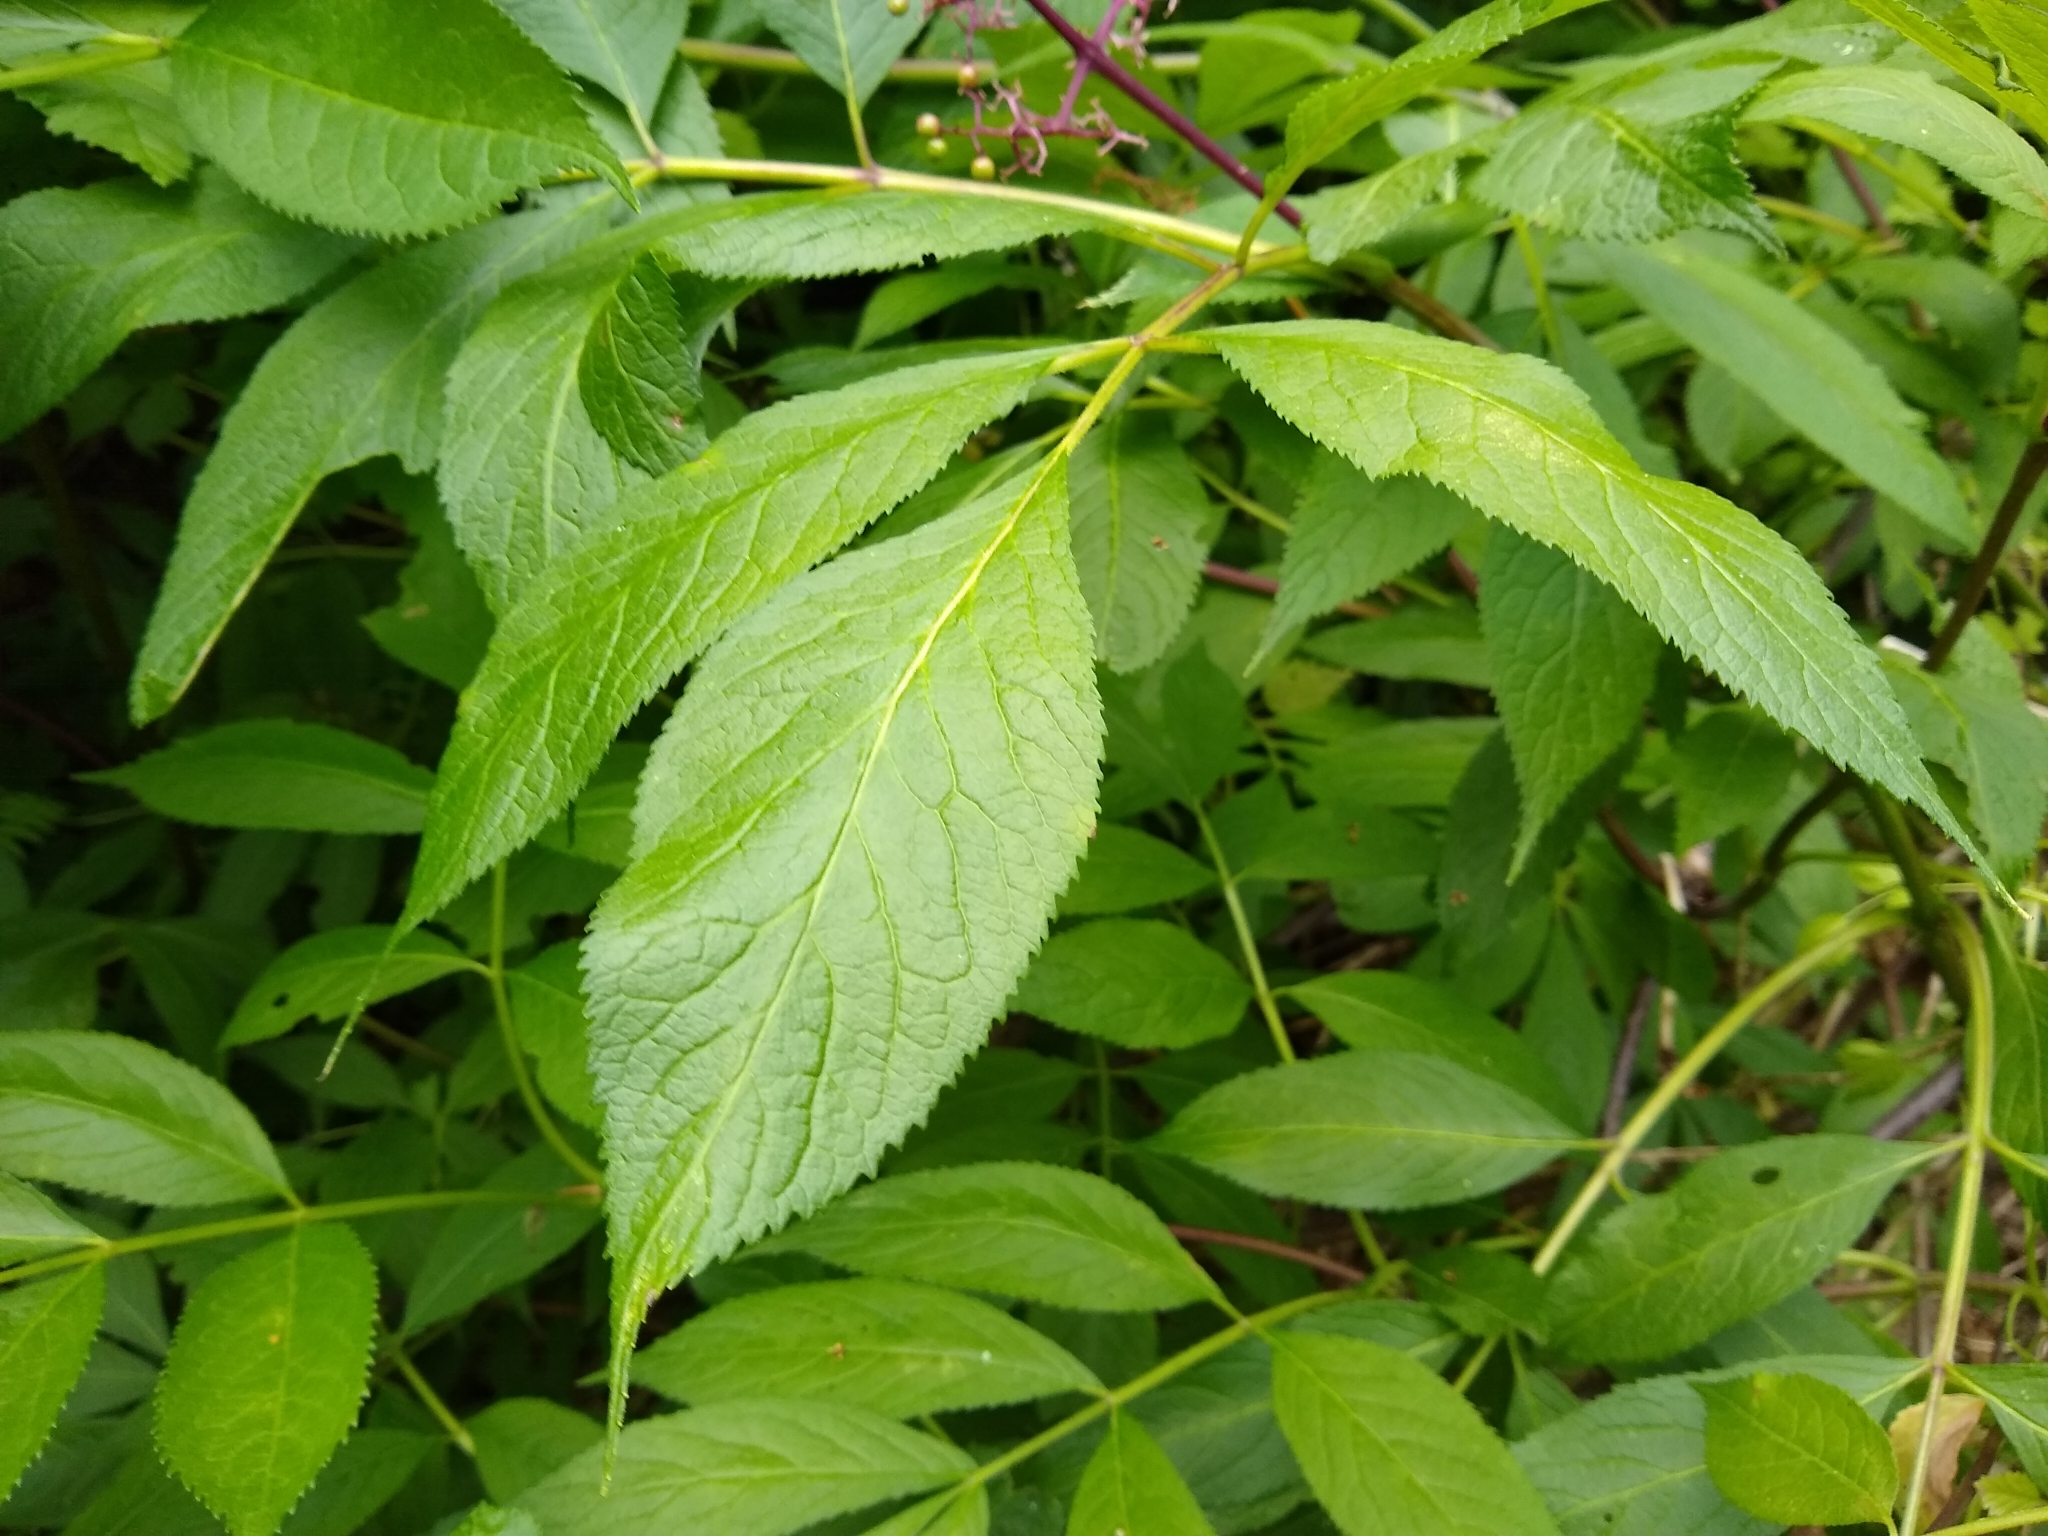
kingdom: Plantae
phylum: Tracheophyta
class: Magnoliopsida
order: Dipsacales
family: Viburnaceae
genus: Sambucus
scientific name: Sambucus racemosa
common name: Red-berried elder
